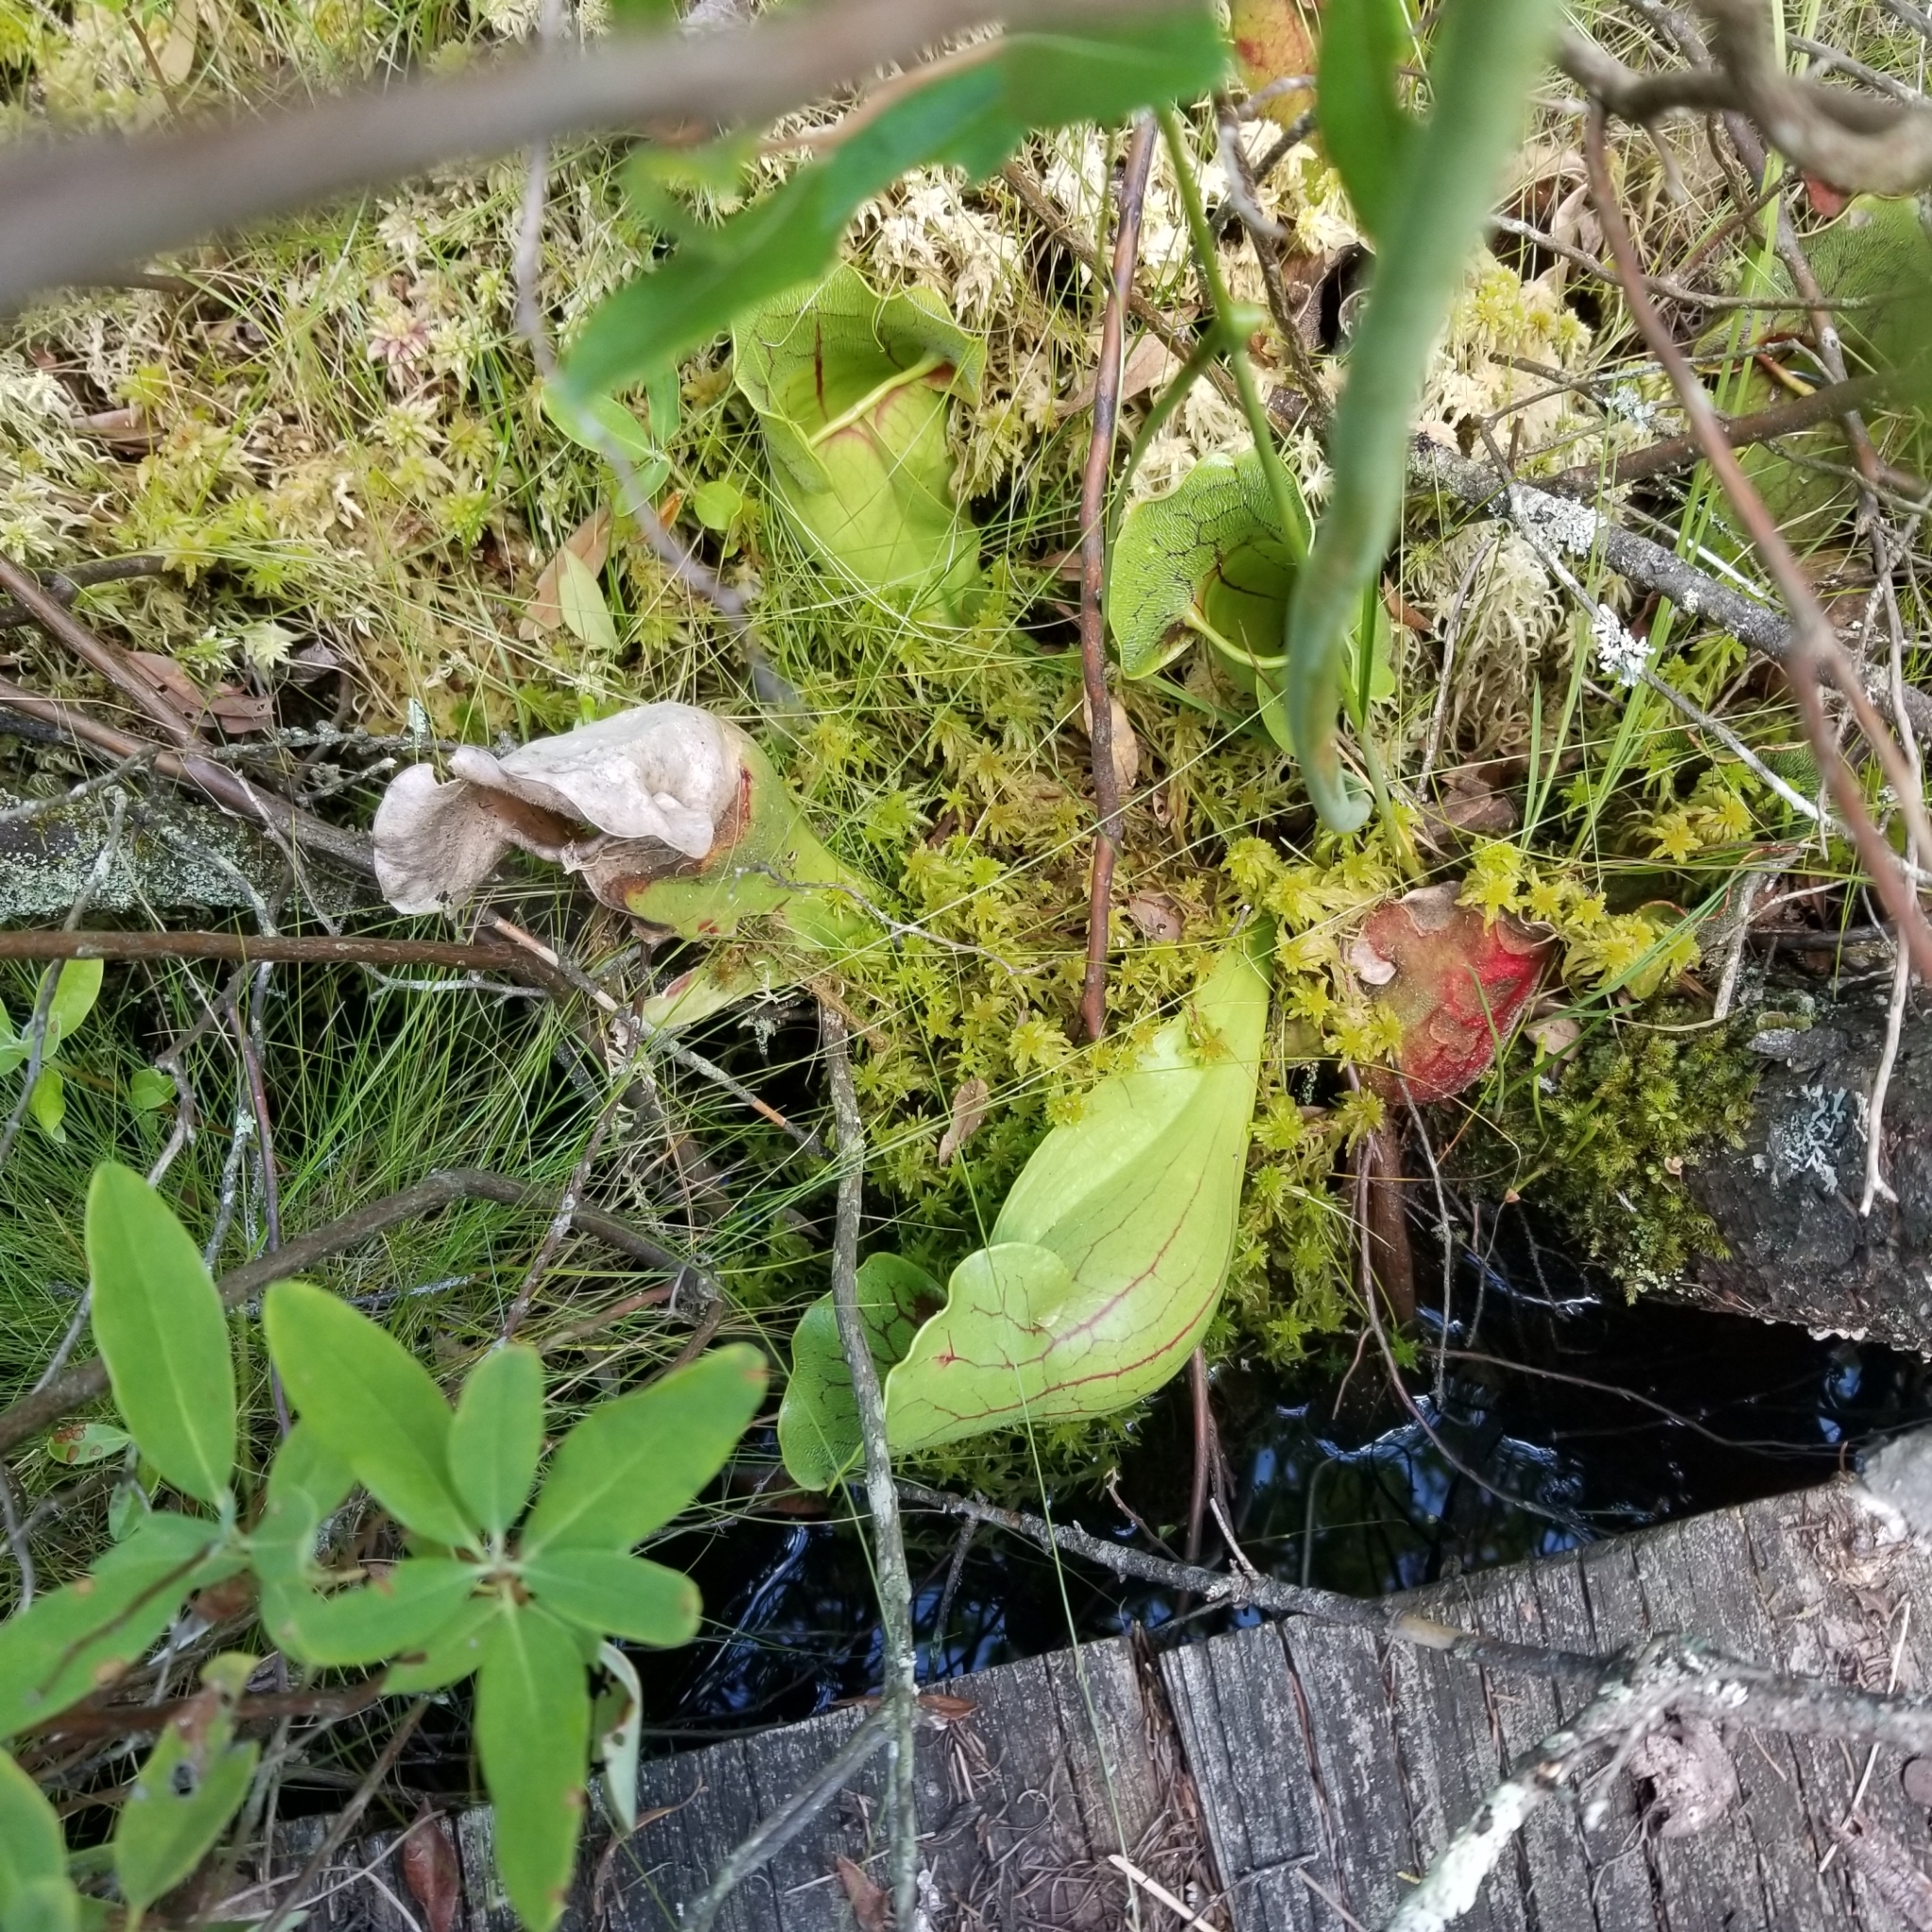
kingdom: Plantae
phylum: Tracheophyta
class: Magnoliopsida
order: Ericales
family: Sarraceniaceae
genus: Sarracenia
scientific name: Sarracenia purpurea
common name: Pitcherplant
